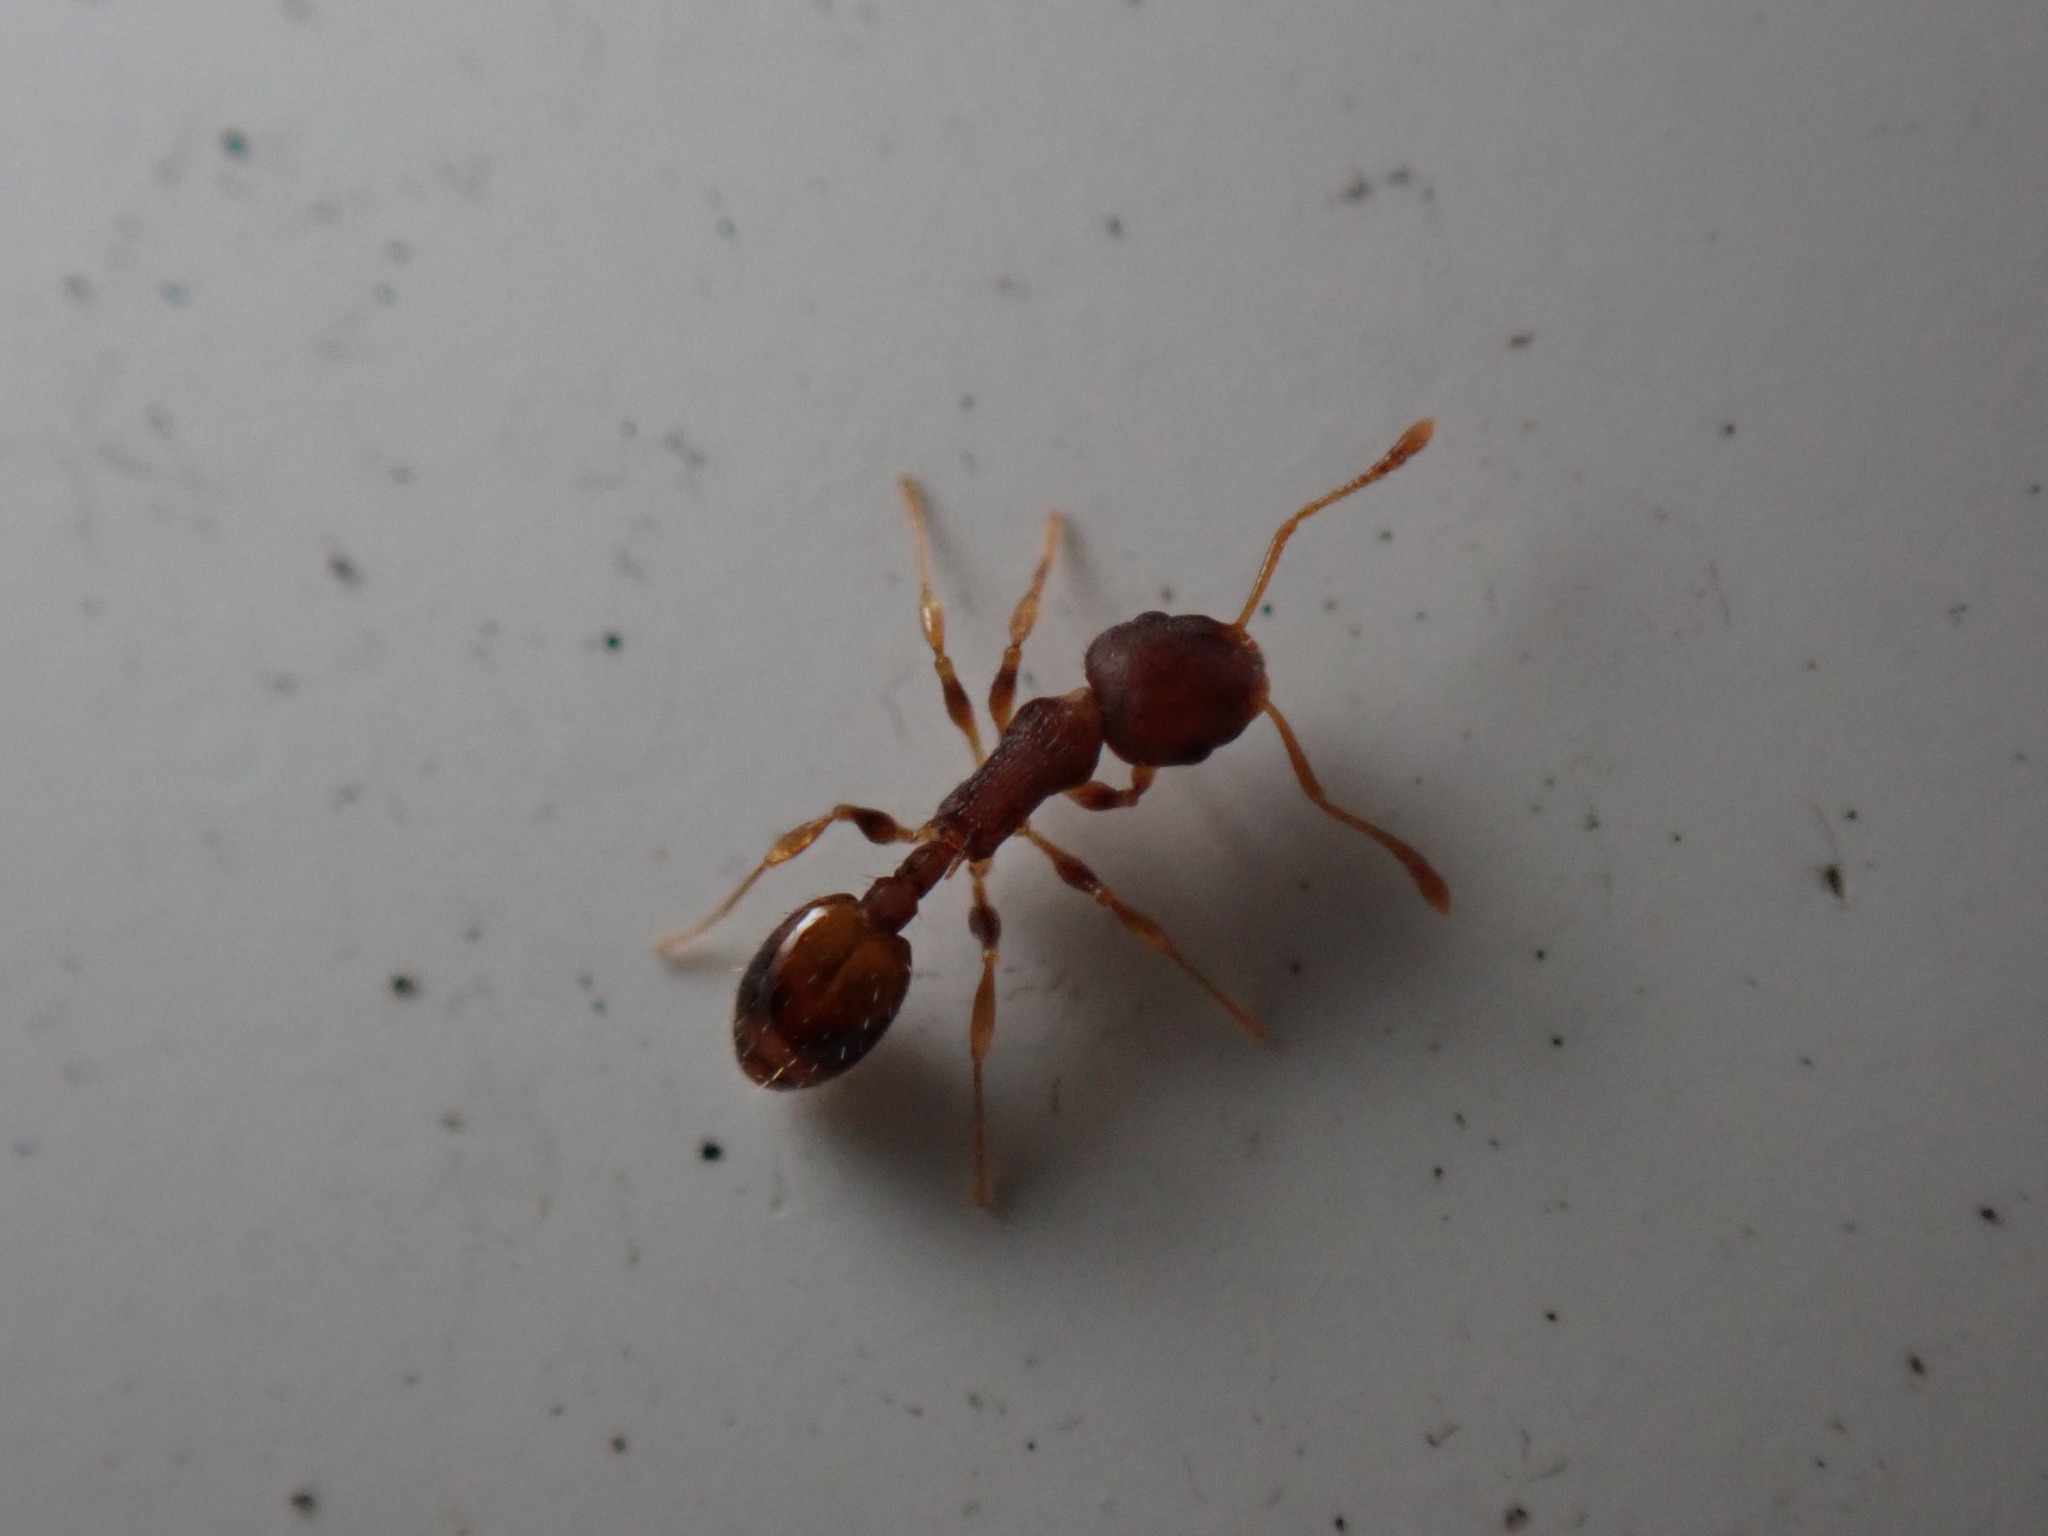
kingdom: Animalia
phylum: Arthropoda
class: Insecta
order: Hymenoptera
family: Formicidae
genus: Temnothorax
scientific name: Temnothorax curvispinosus
